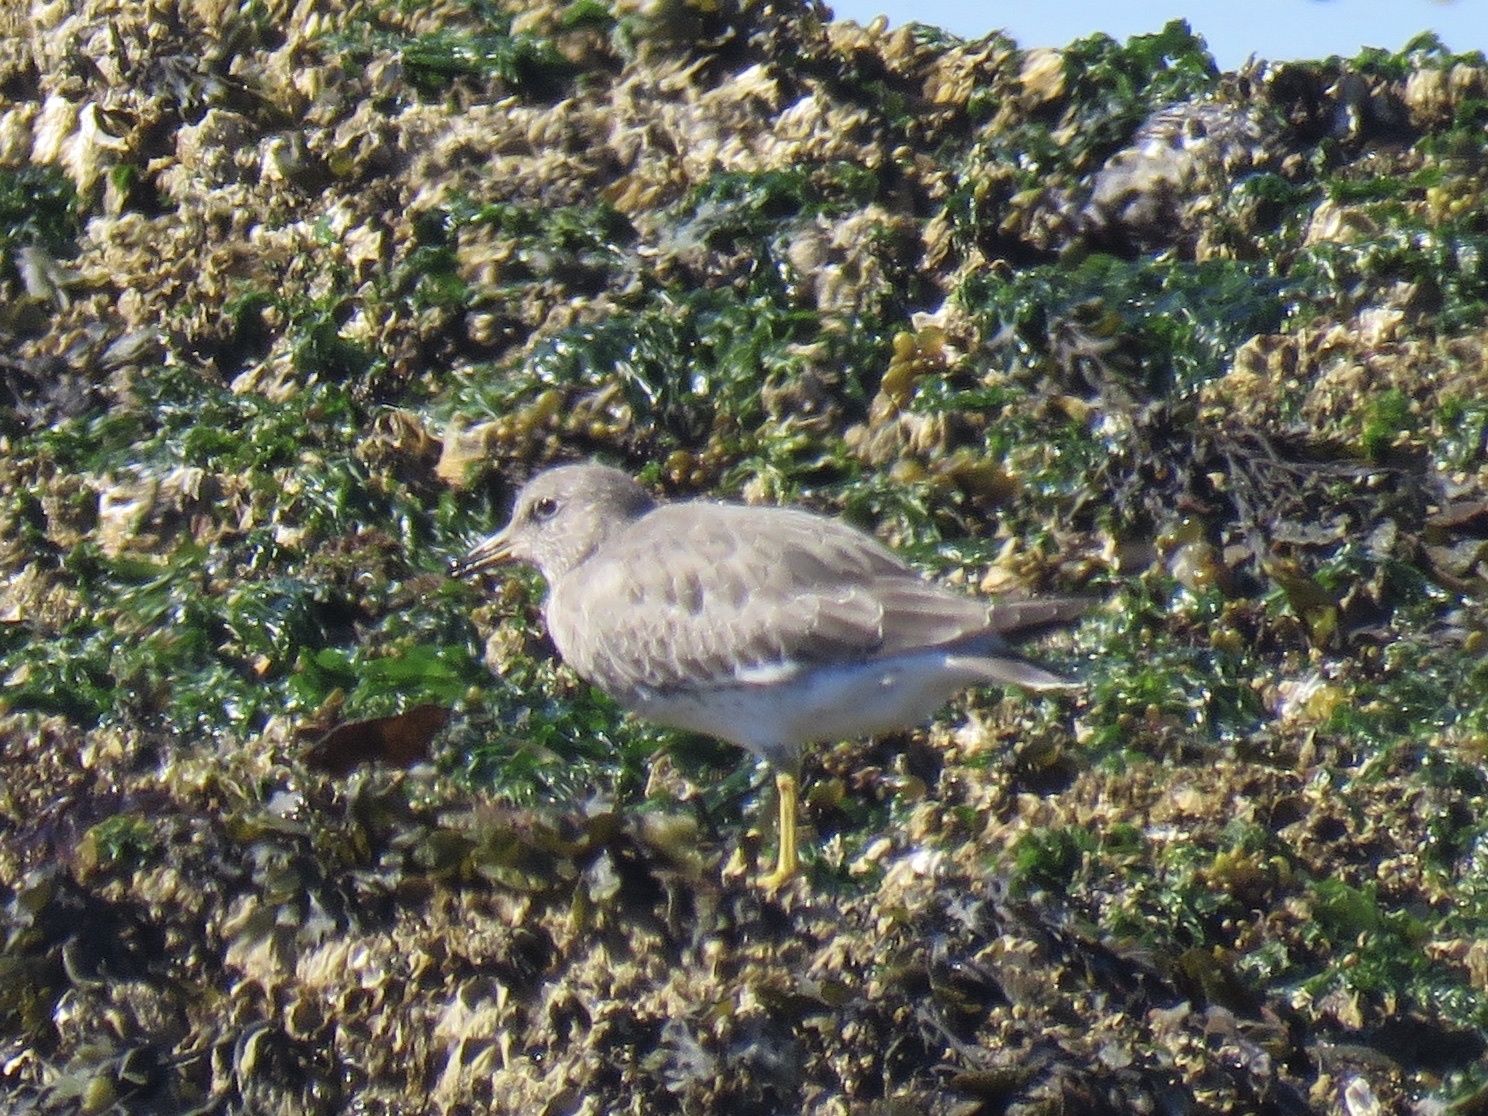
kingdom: Animalia
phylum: Chordata
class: Aves
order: Charadriiformes
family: Scolopacidae
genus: Calidris
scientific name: Calidris virgata
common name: Surfbird
